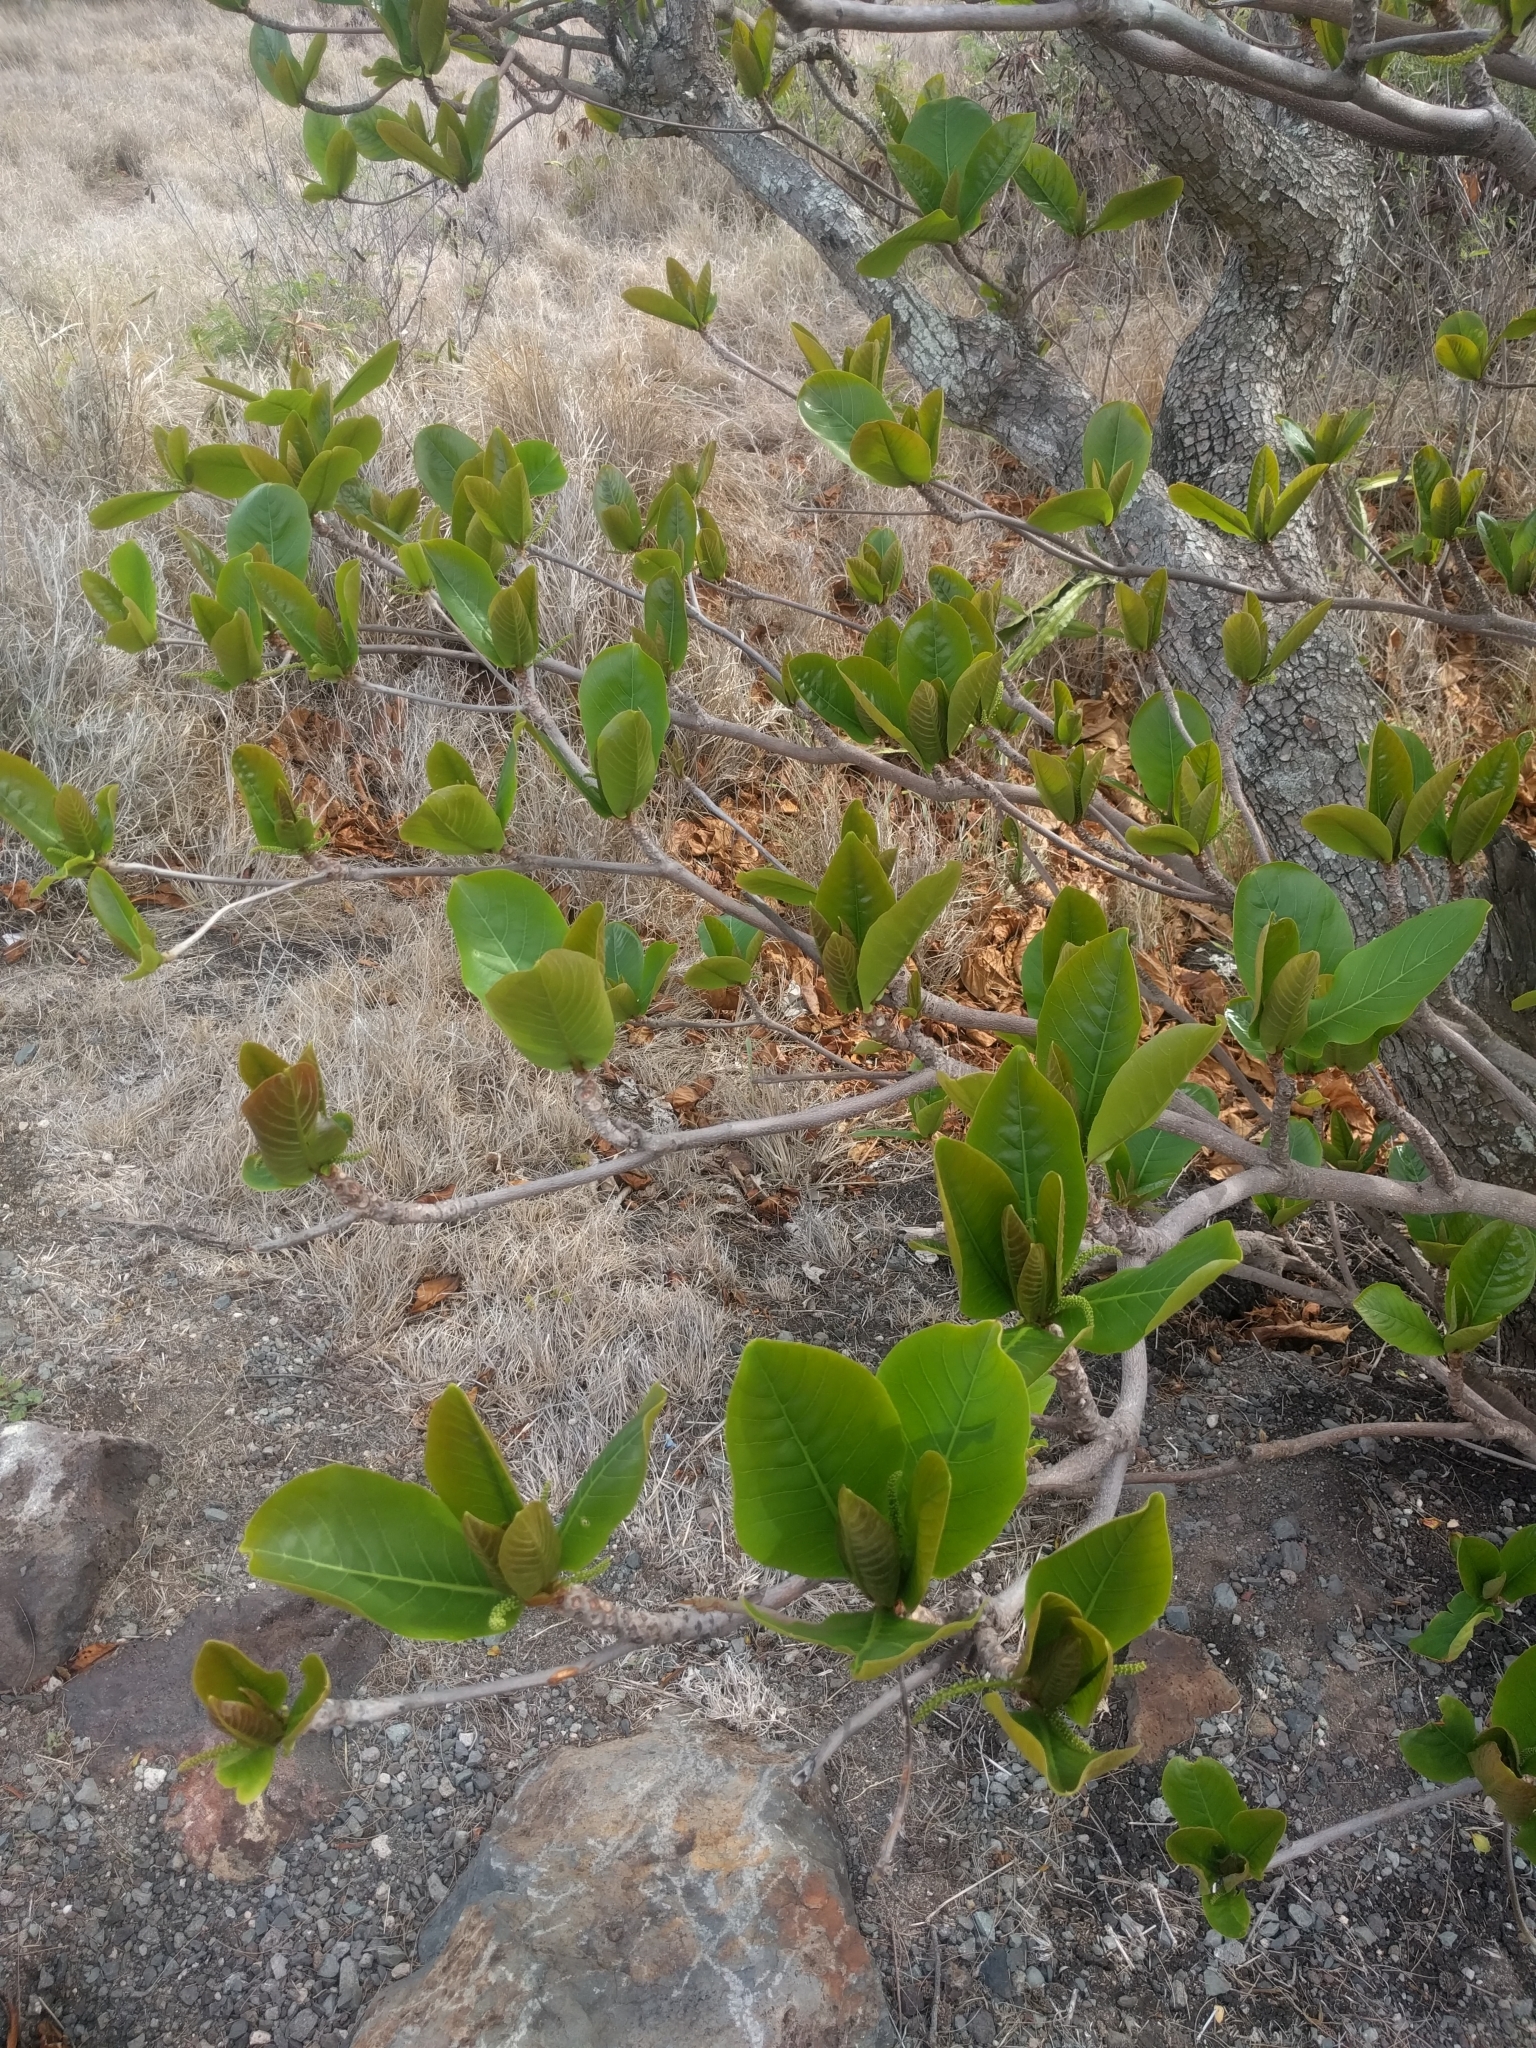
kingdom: Plantae
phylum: Tracheophyta
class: Magnoliopsida
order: Myrtales
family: Combretaceae
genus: Terminalia
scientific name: Terminalia catappa
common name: Tropical almond
